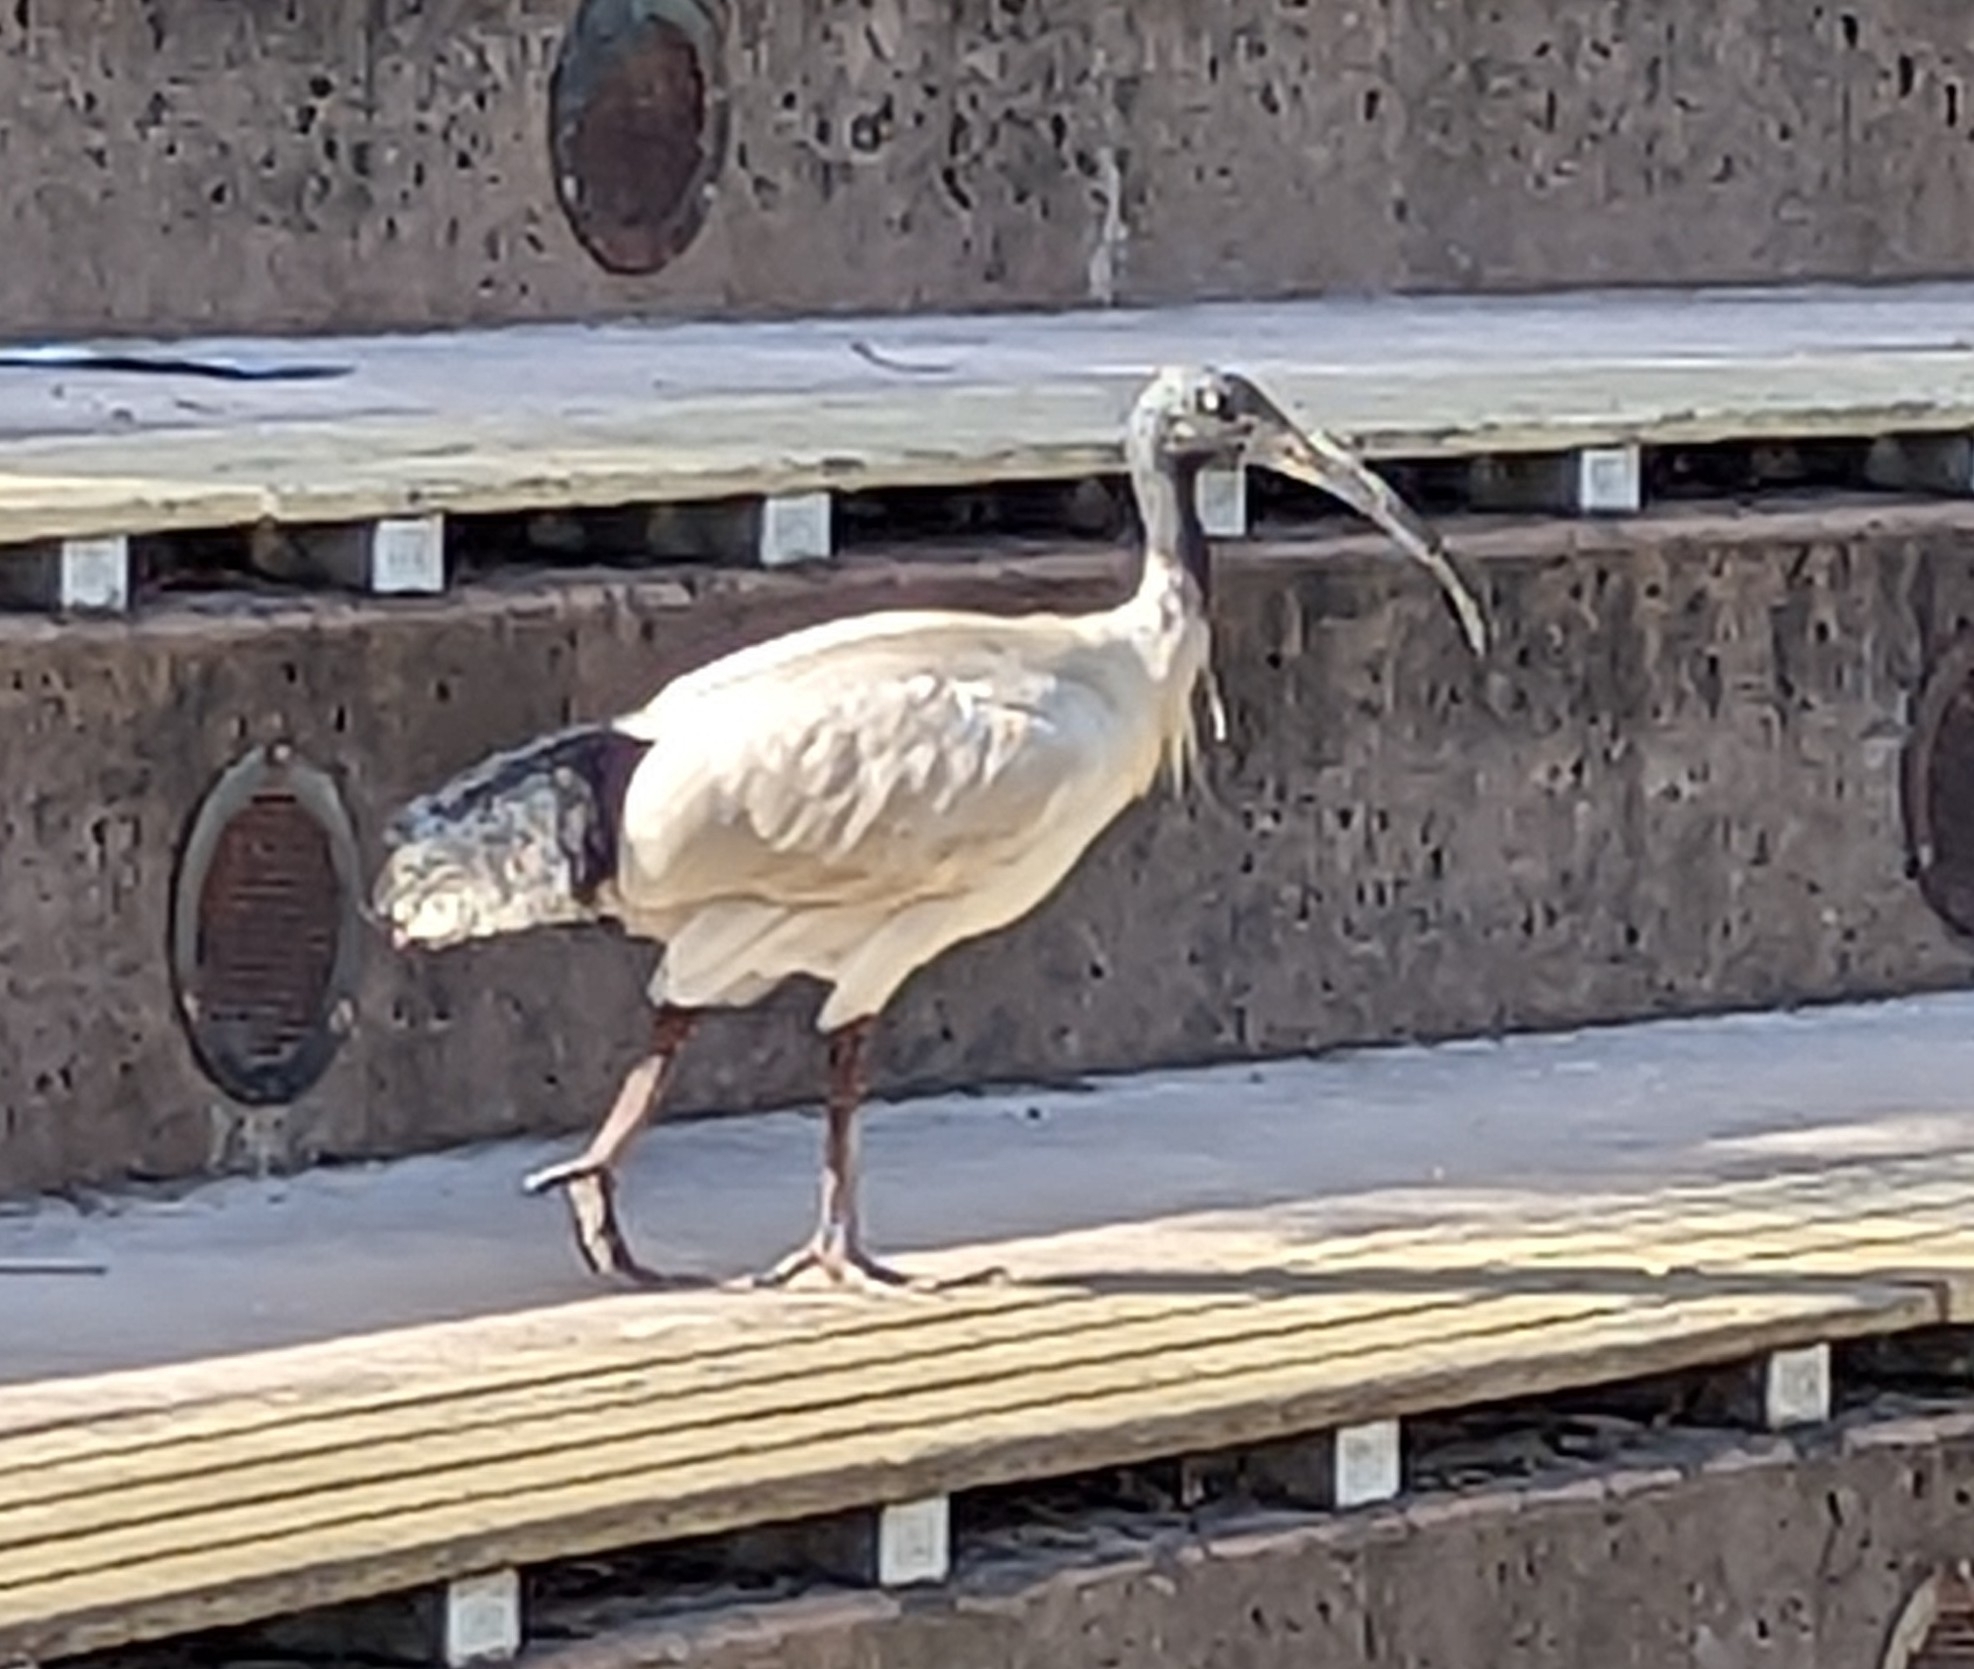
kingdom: Animalia
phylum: Chordata
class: Aves
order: Pelecaniformes
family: Threskiornithidae
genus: Threskiornis
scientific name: Threskiornis molucca
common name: Australian white ibis
